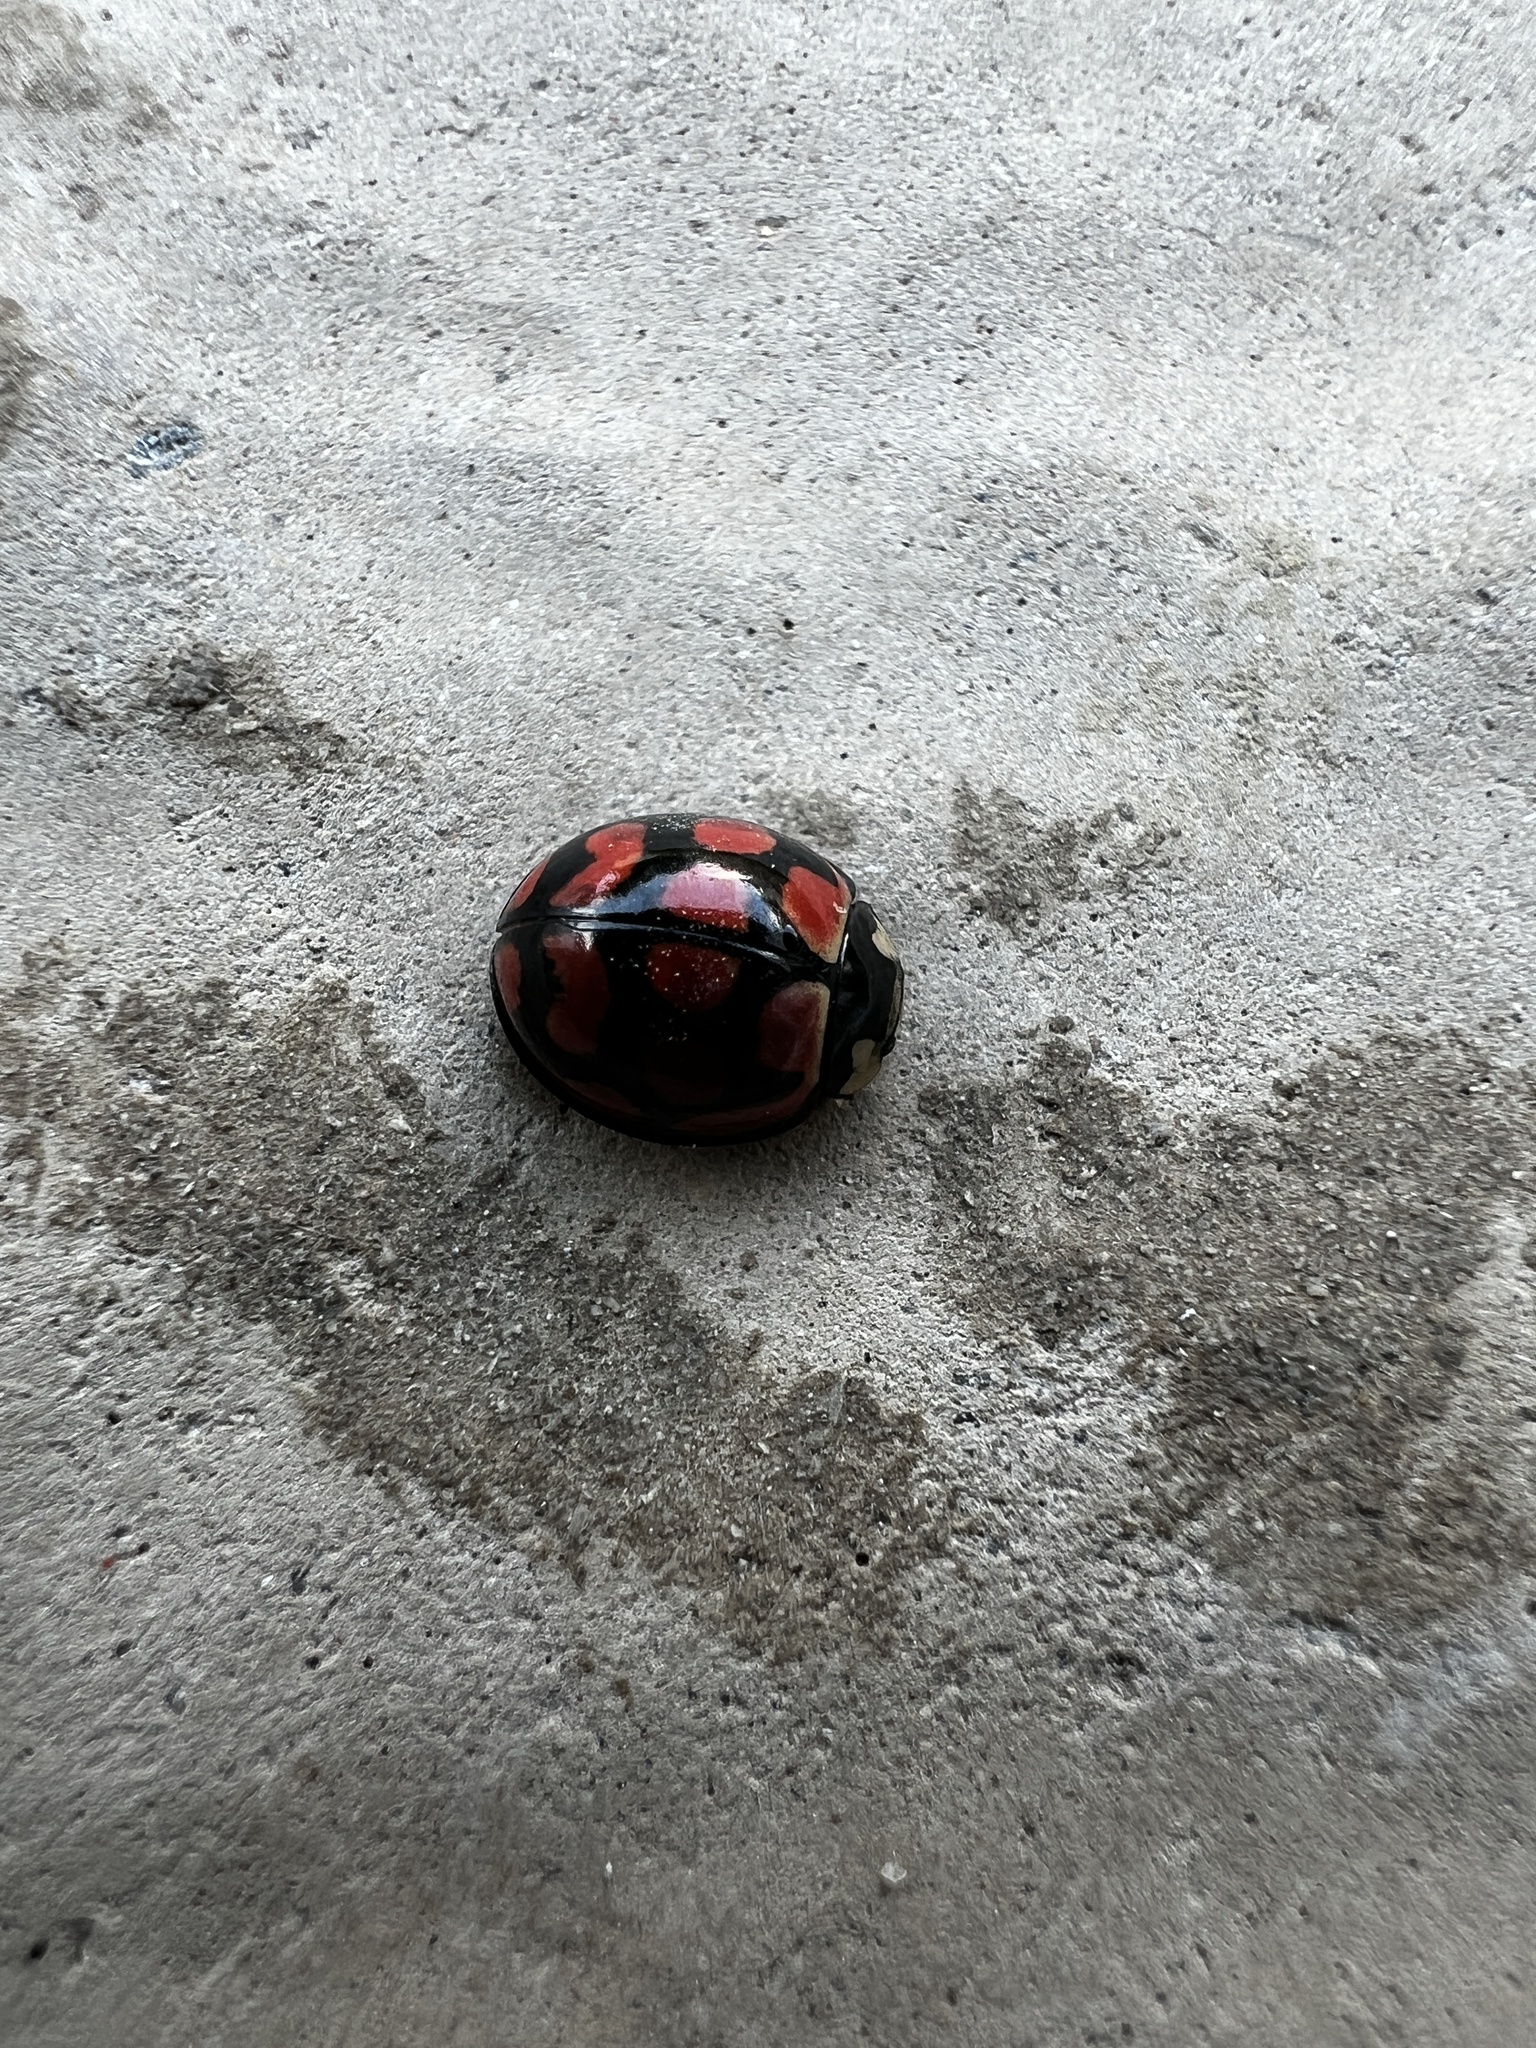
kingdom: Animalia
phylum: Arthropoda
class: Insecta
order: Coleoptera
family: Coccinellidae
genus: Cheilomenes
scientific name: Cheilomenes lunata
